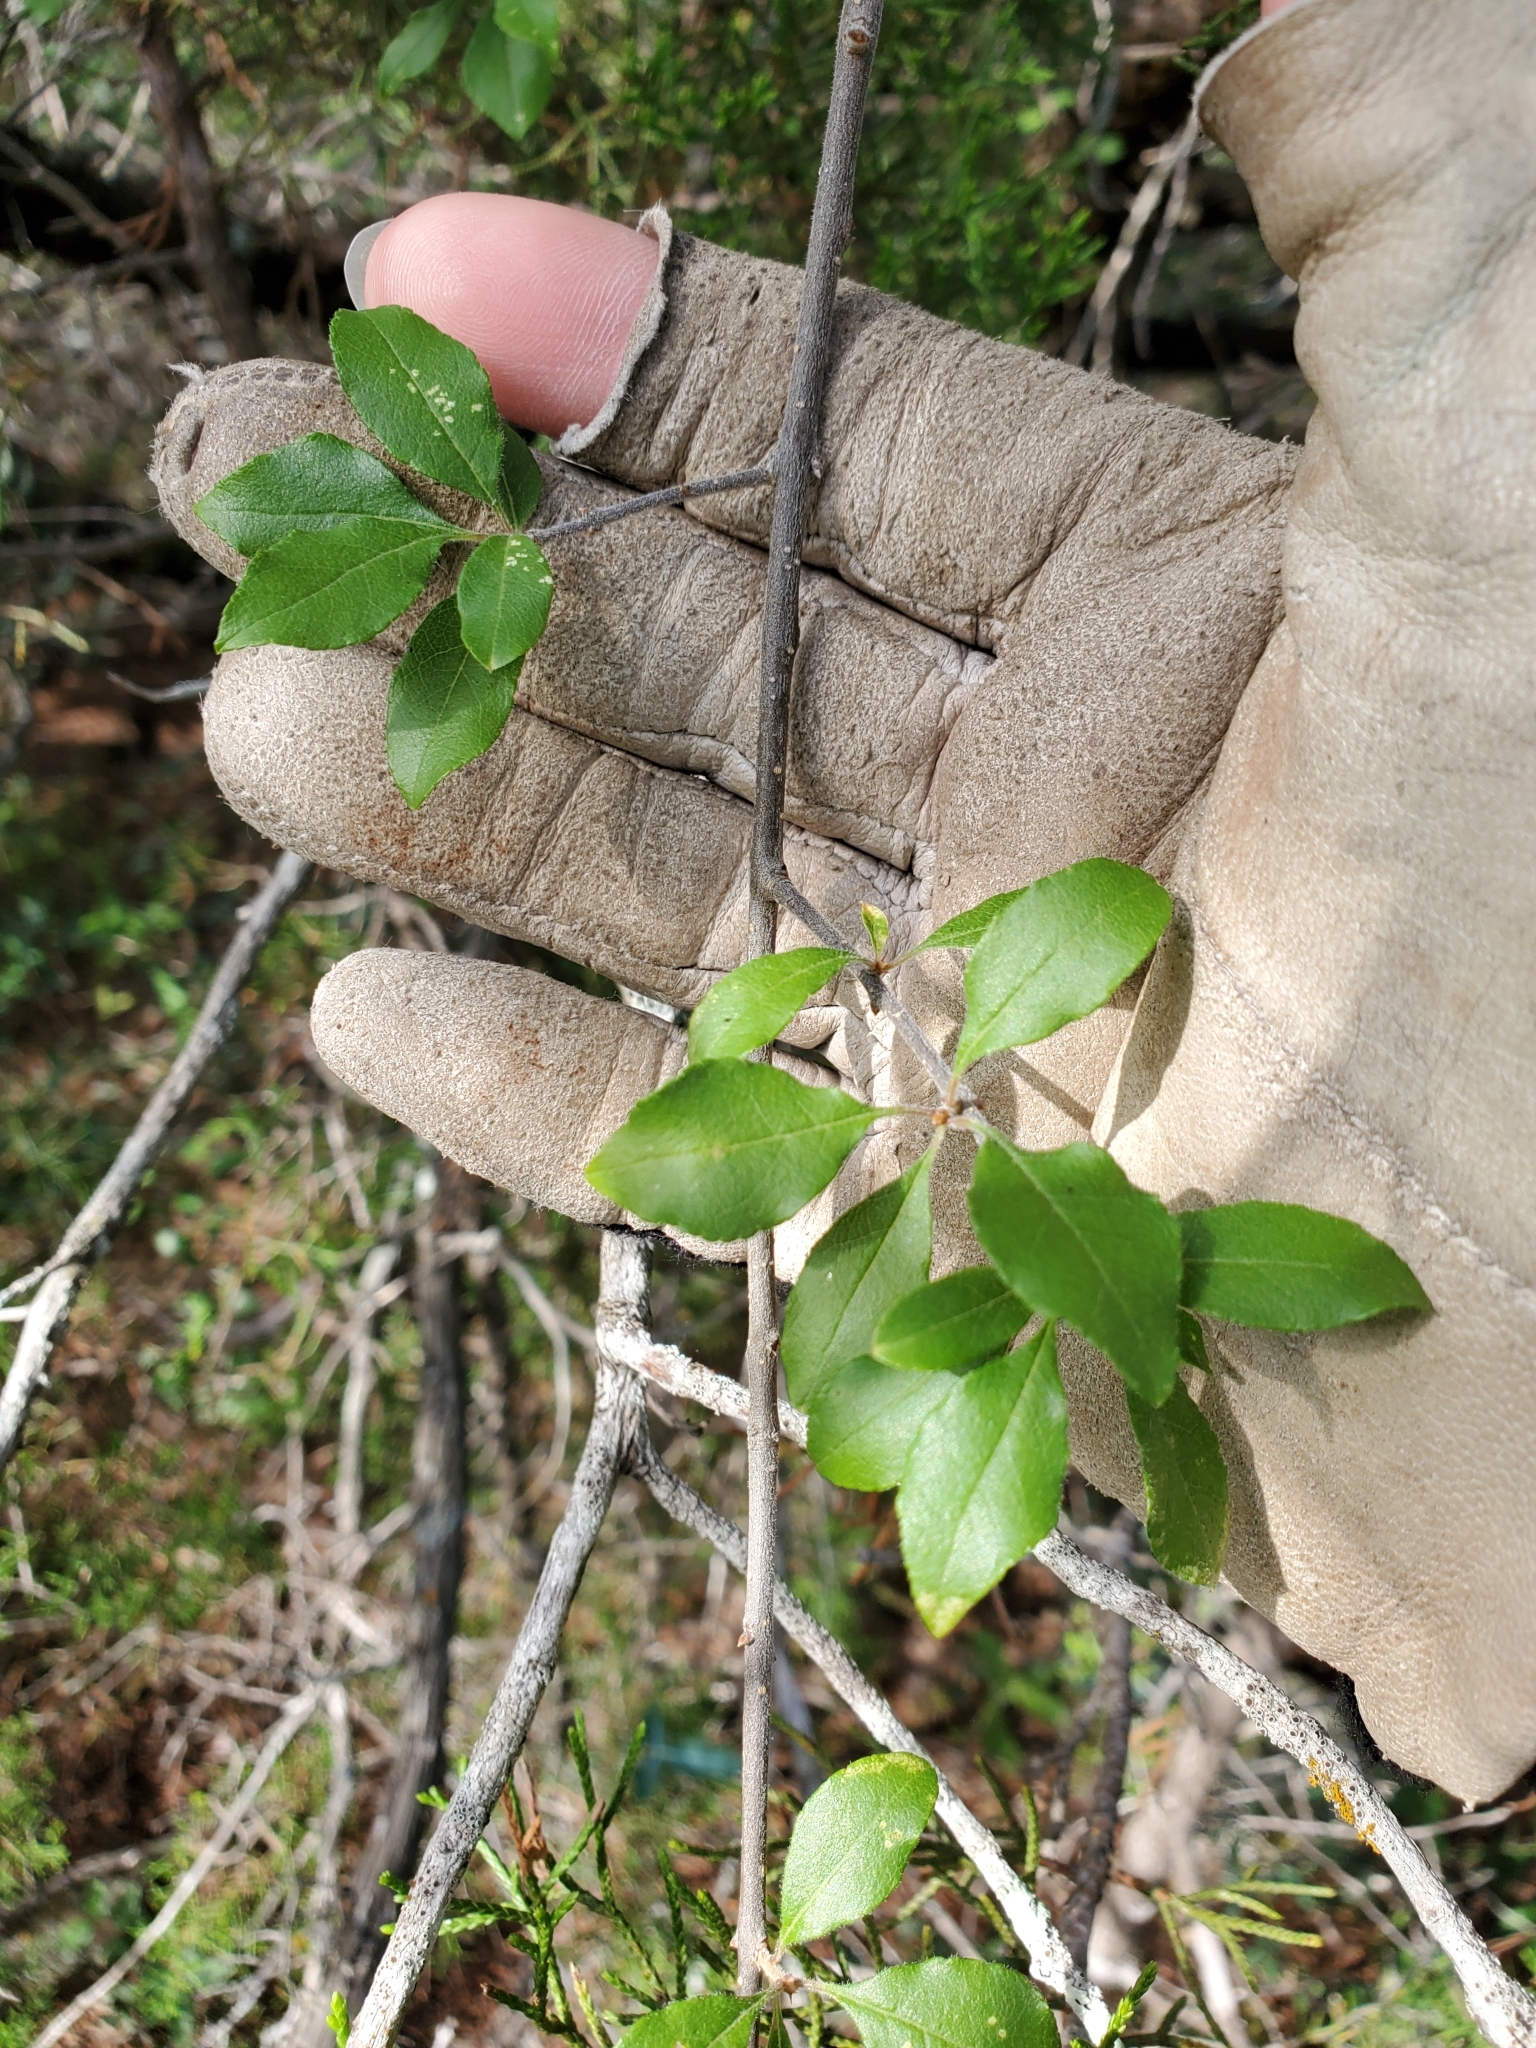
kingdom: Plantae
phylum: Tracheophyta
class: Magnoliopsida
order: Lamiales
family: Oleaceae
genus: Forestiera
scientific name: Forestiera pubescens
